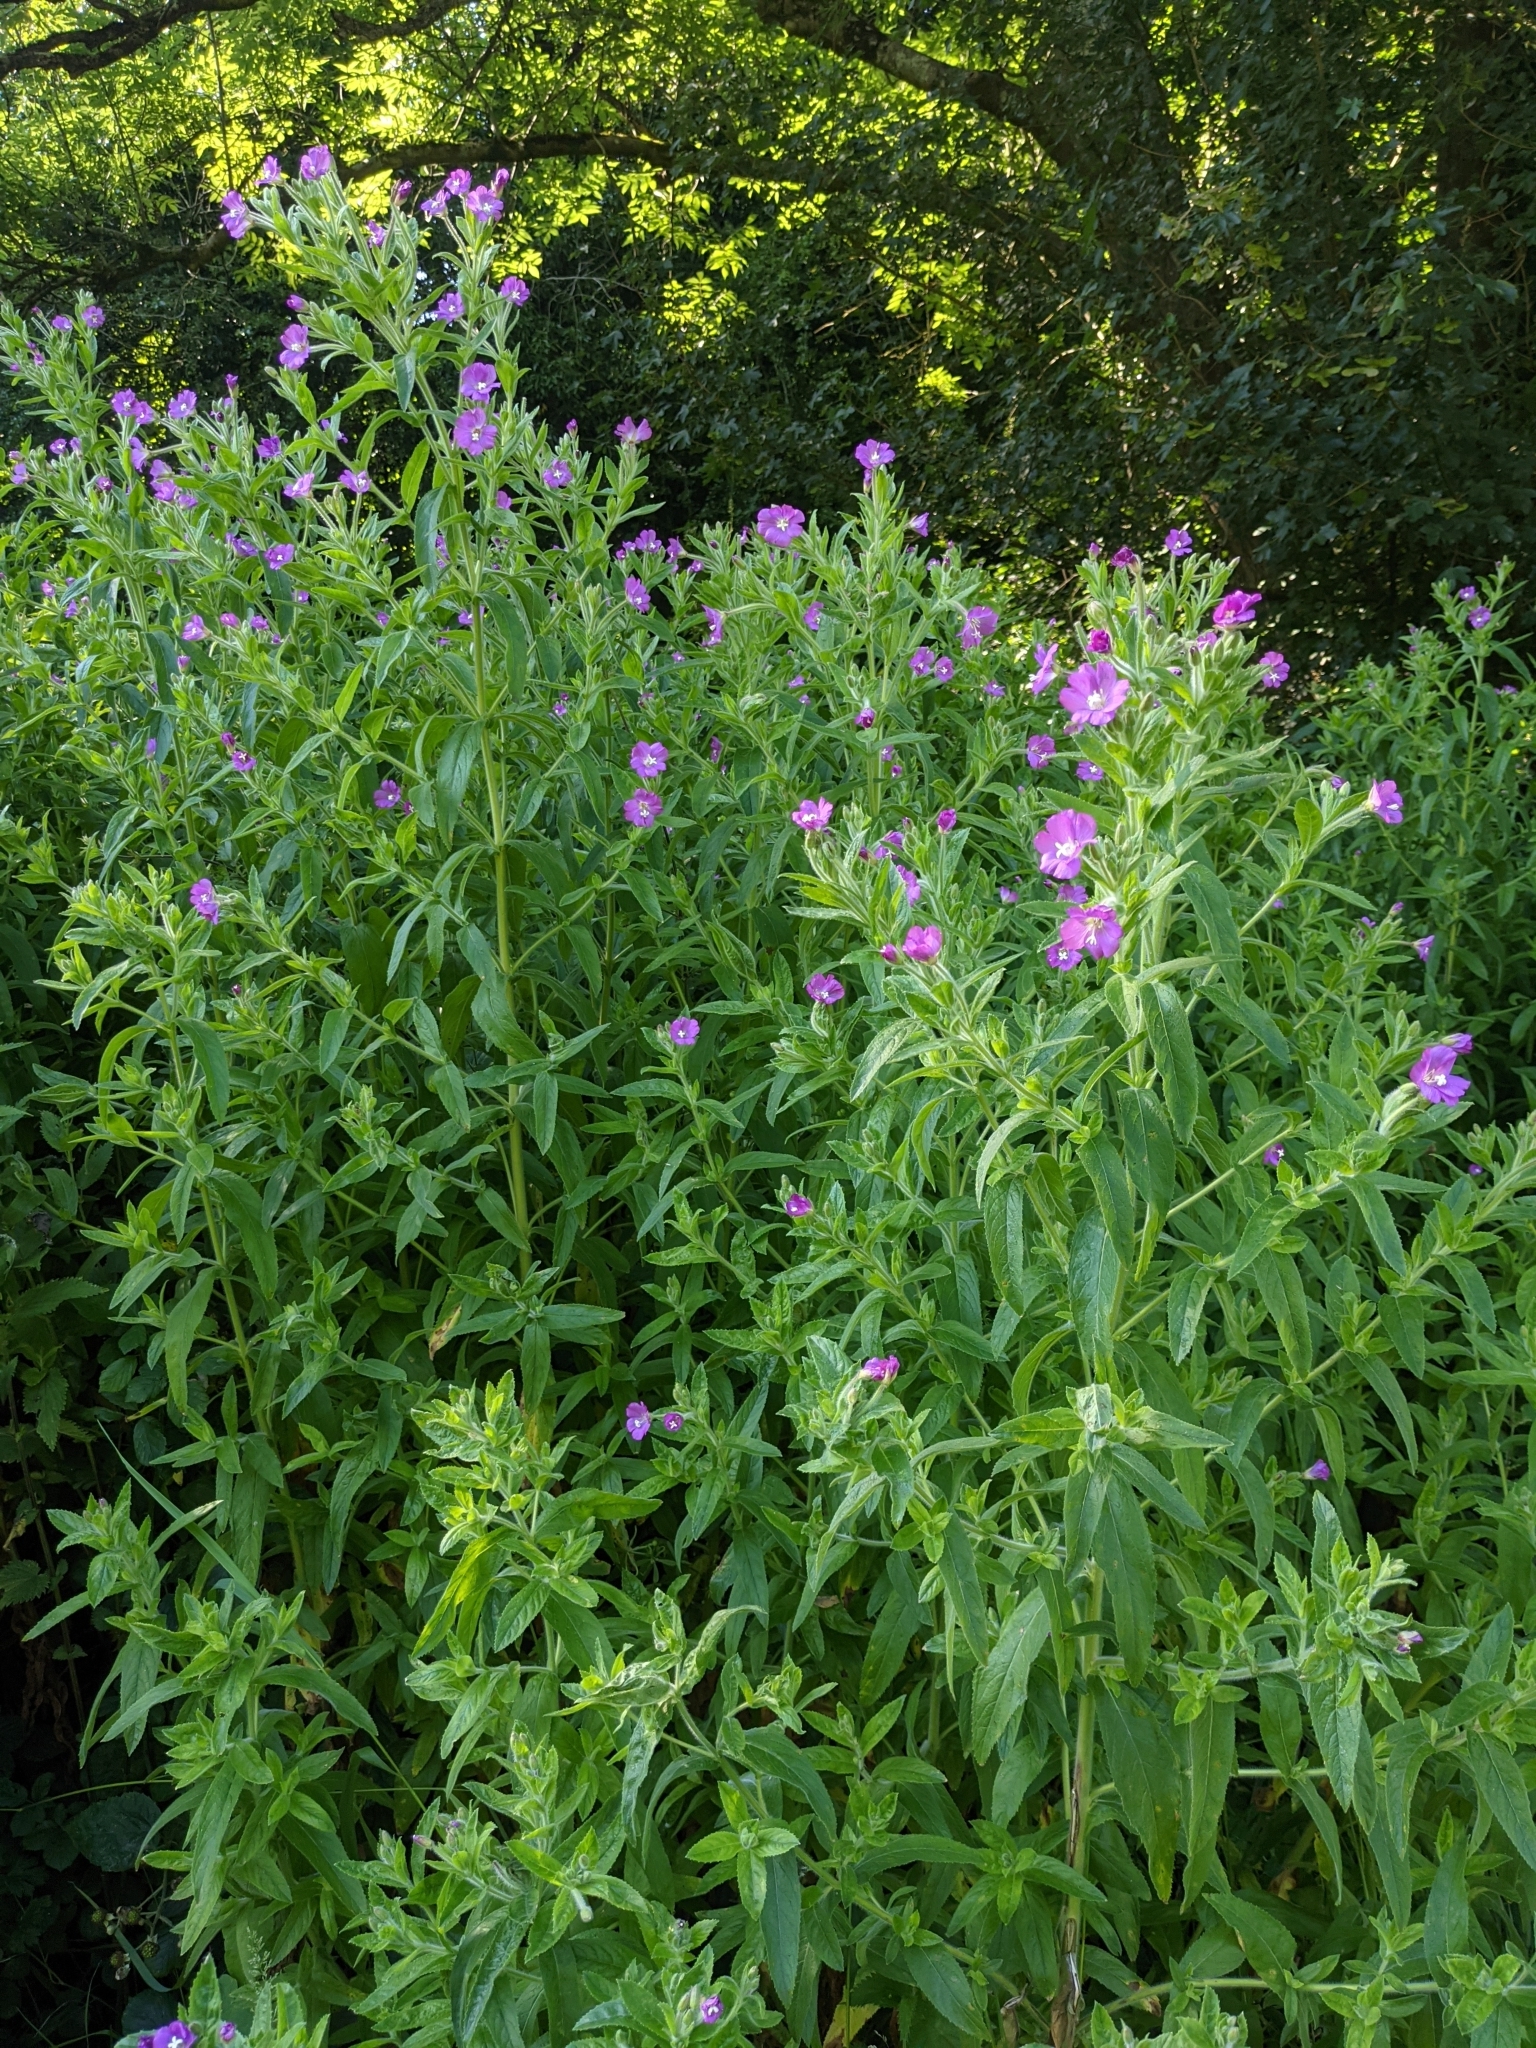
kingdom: Plantae
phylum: Tracheophyta
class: Magnoliopsida
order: Myrtales
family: Onagraceae
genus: Epilobium
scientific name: Epilobium hirsutum
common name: Great willowherb
